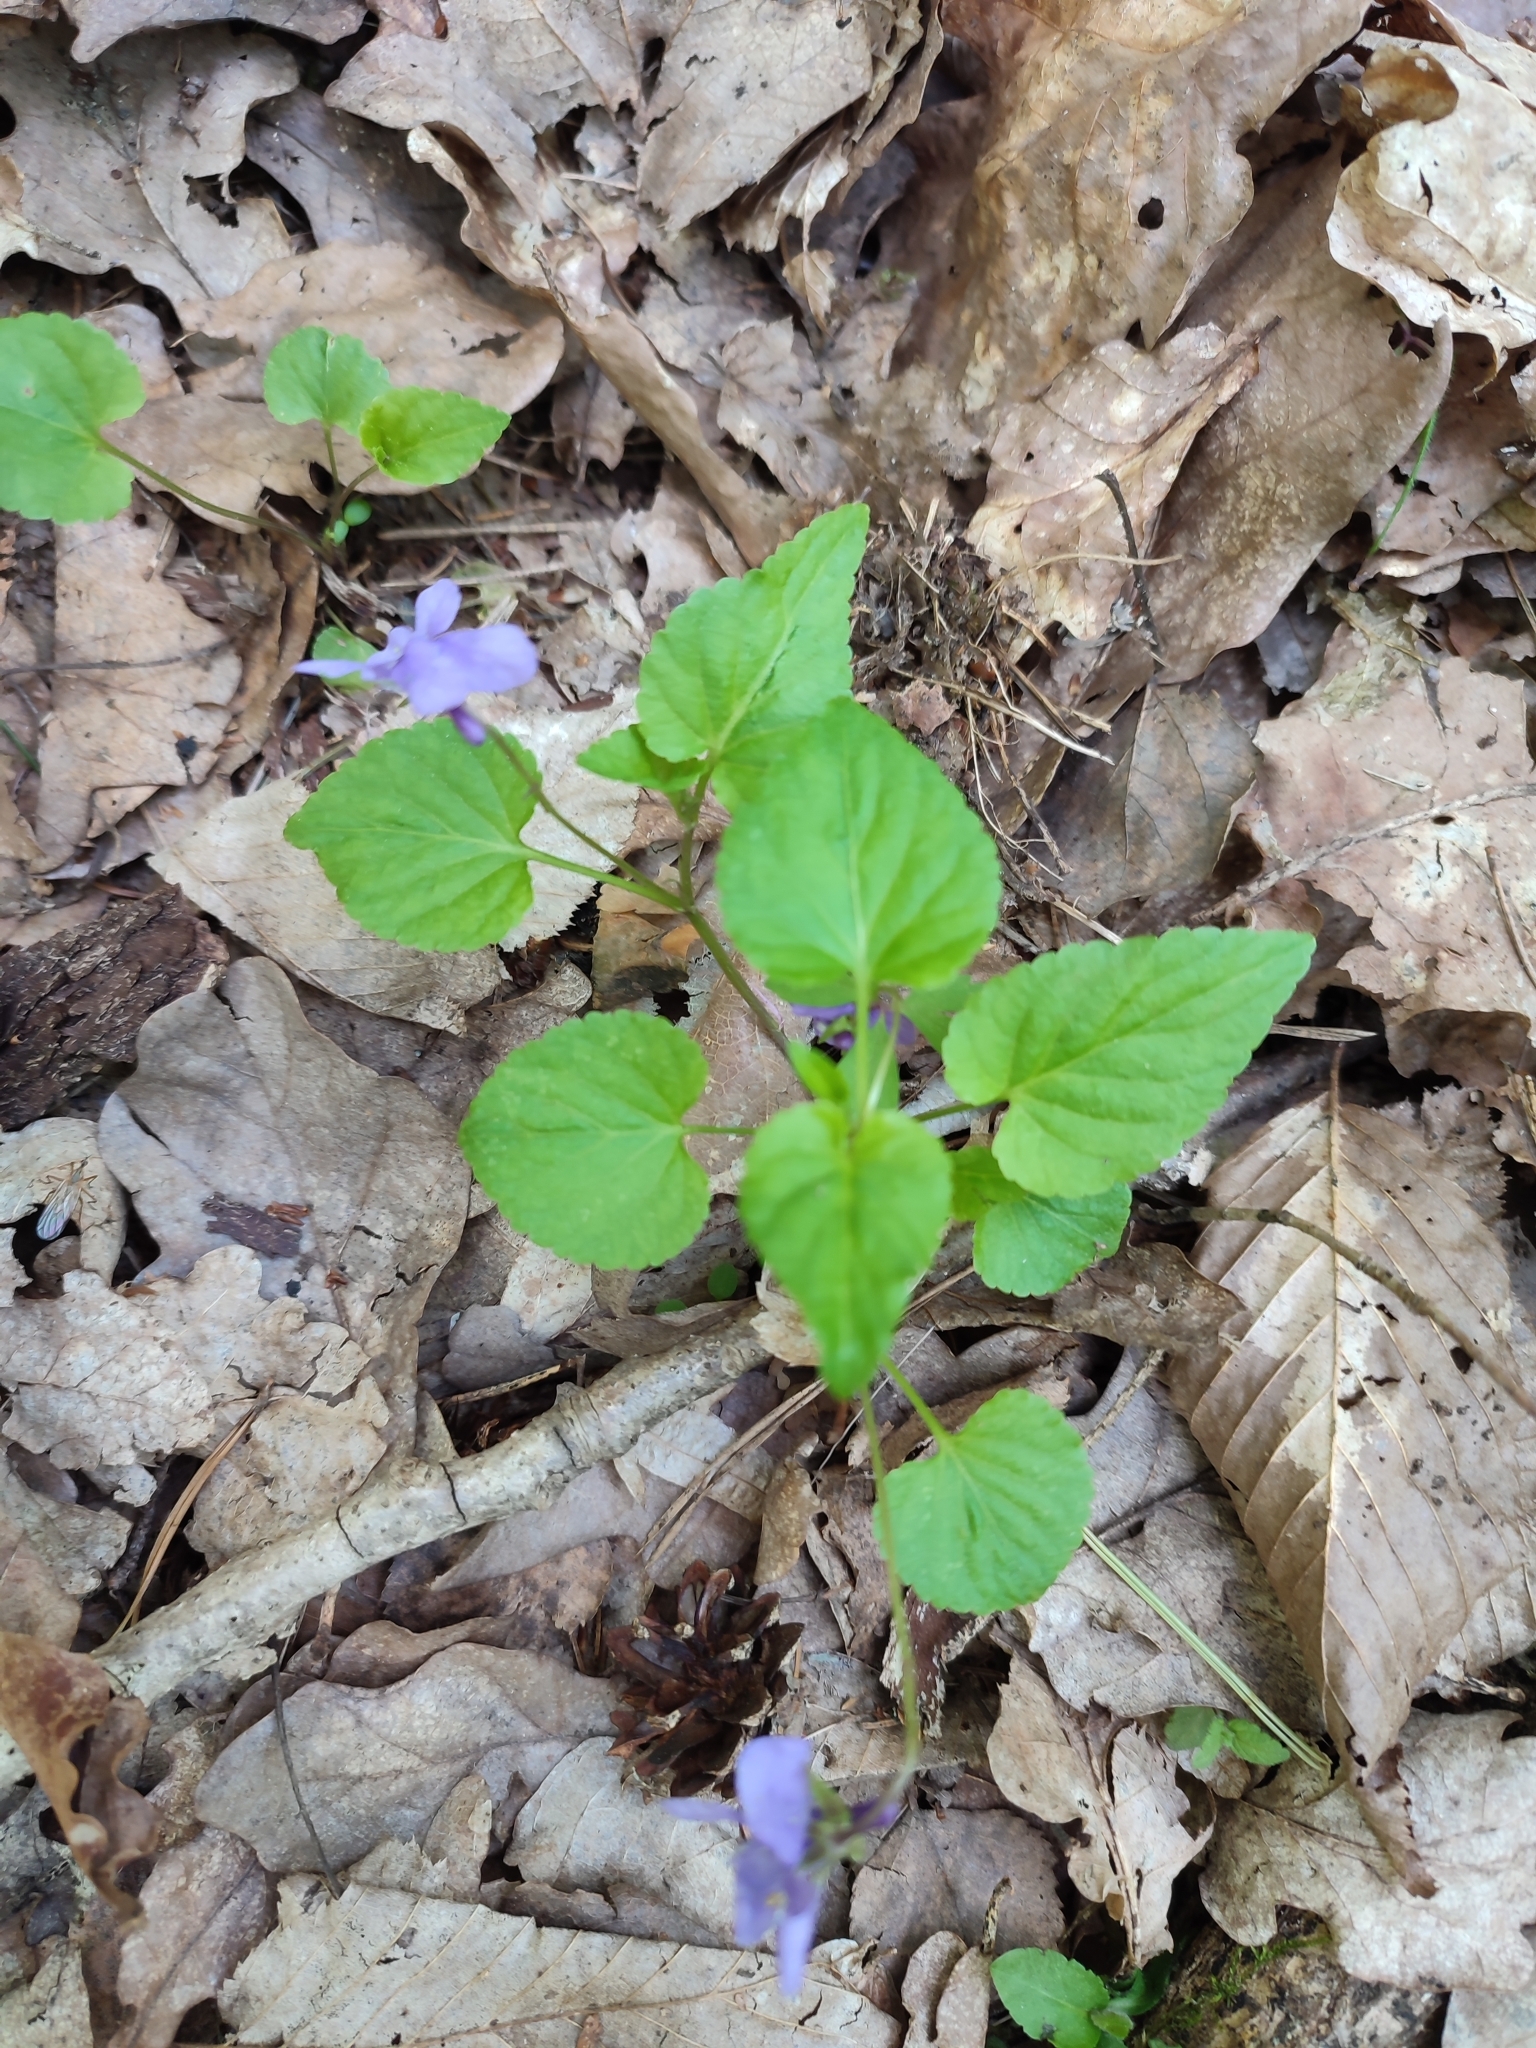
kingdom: Plantae
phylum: Tracheophyta
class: Magnoliopsida
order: Malpighiales
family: Violaceae
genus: Viola
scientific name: Viola reichenbachiana
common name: Early dog-violet
